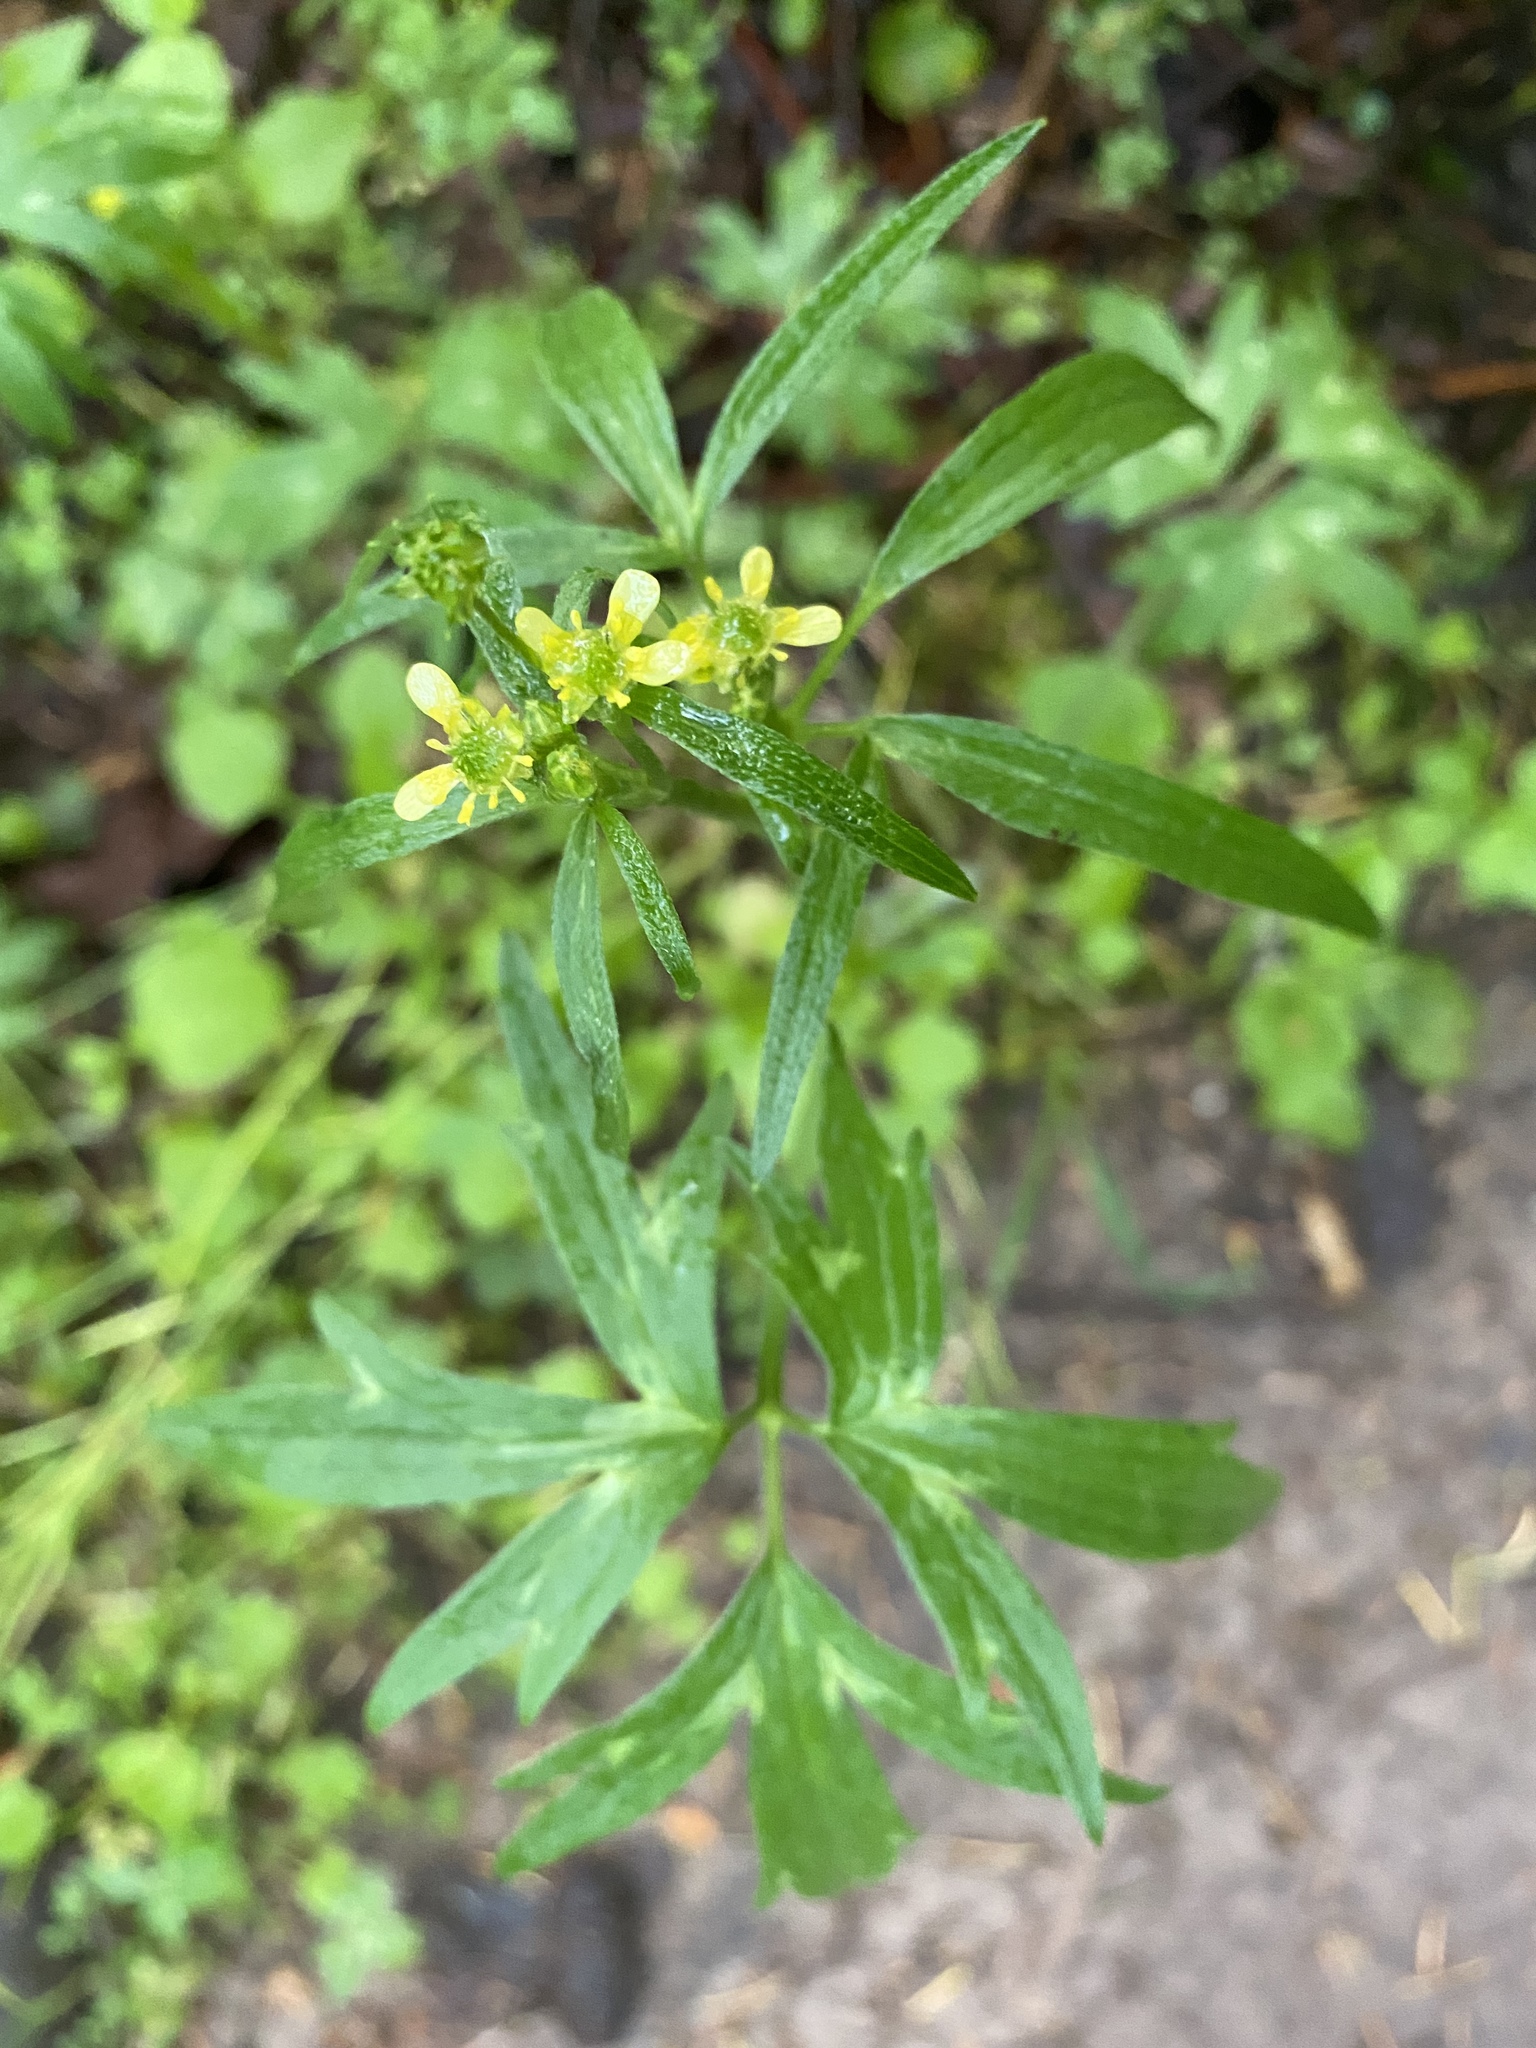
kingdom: Plantae
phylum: Tracheophyta
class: Magnoliopsida
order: Ranunculales
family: Ranunculaceae
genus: Ranunculus
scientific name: Ranunculus uncinatus
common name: Little buttercup
